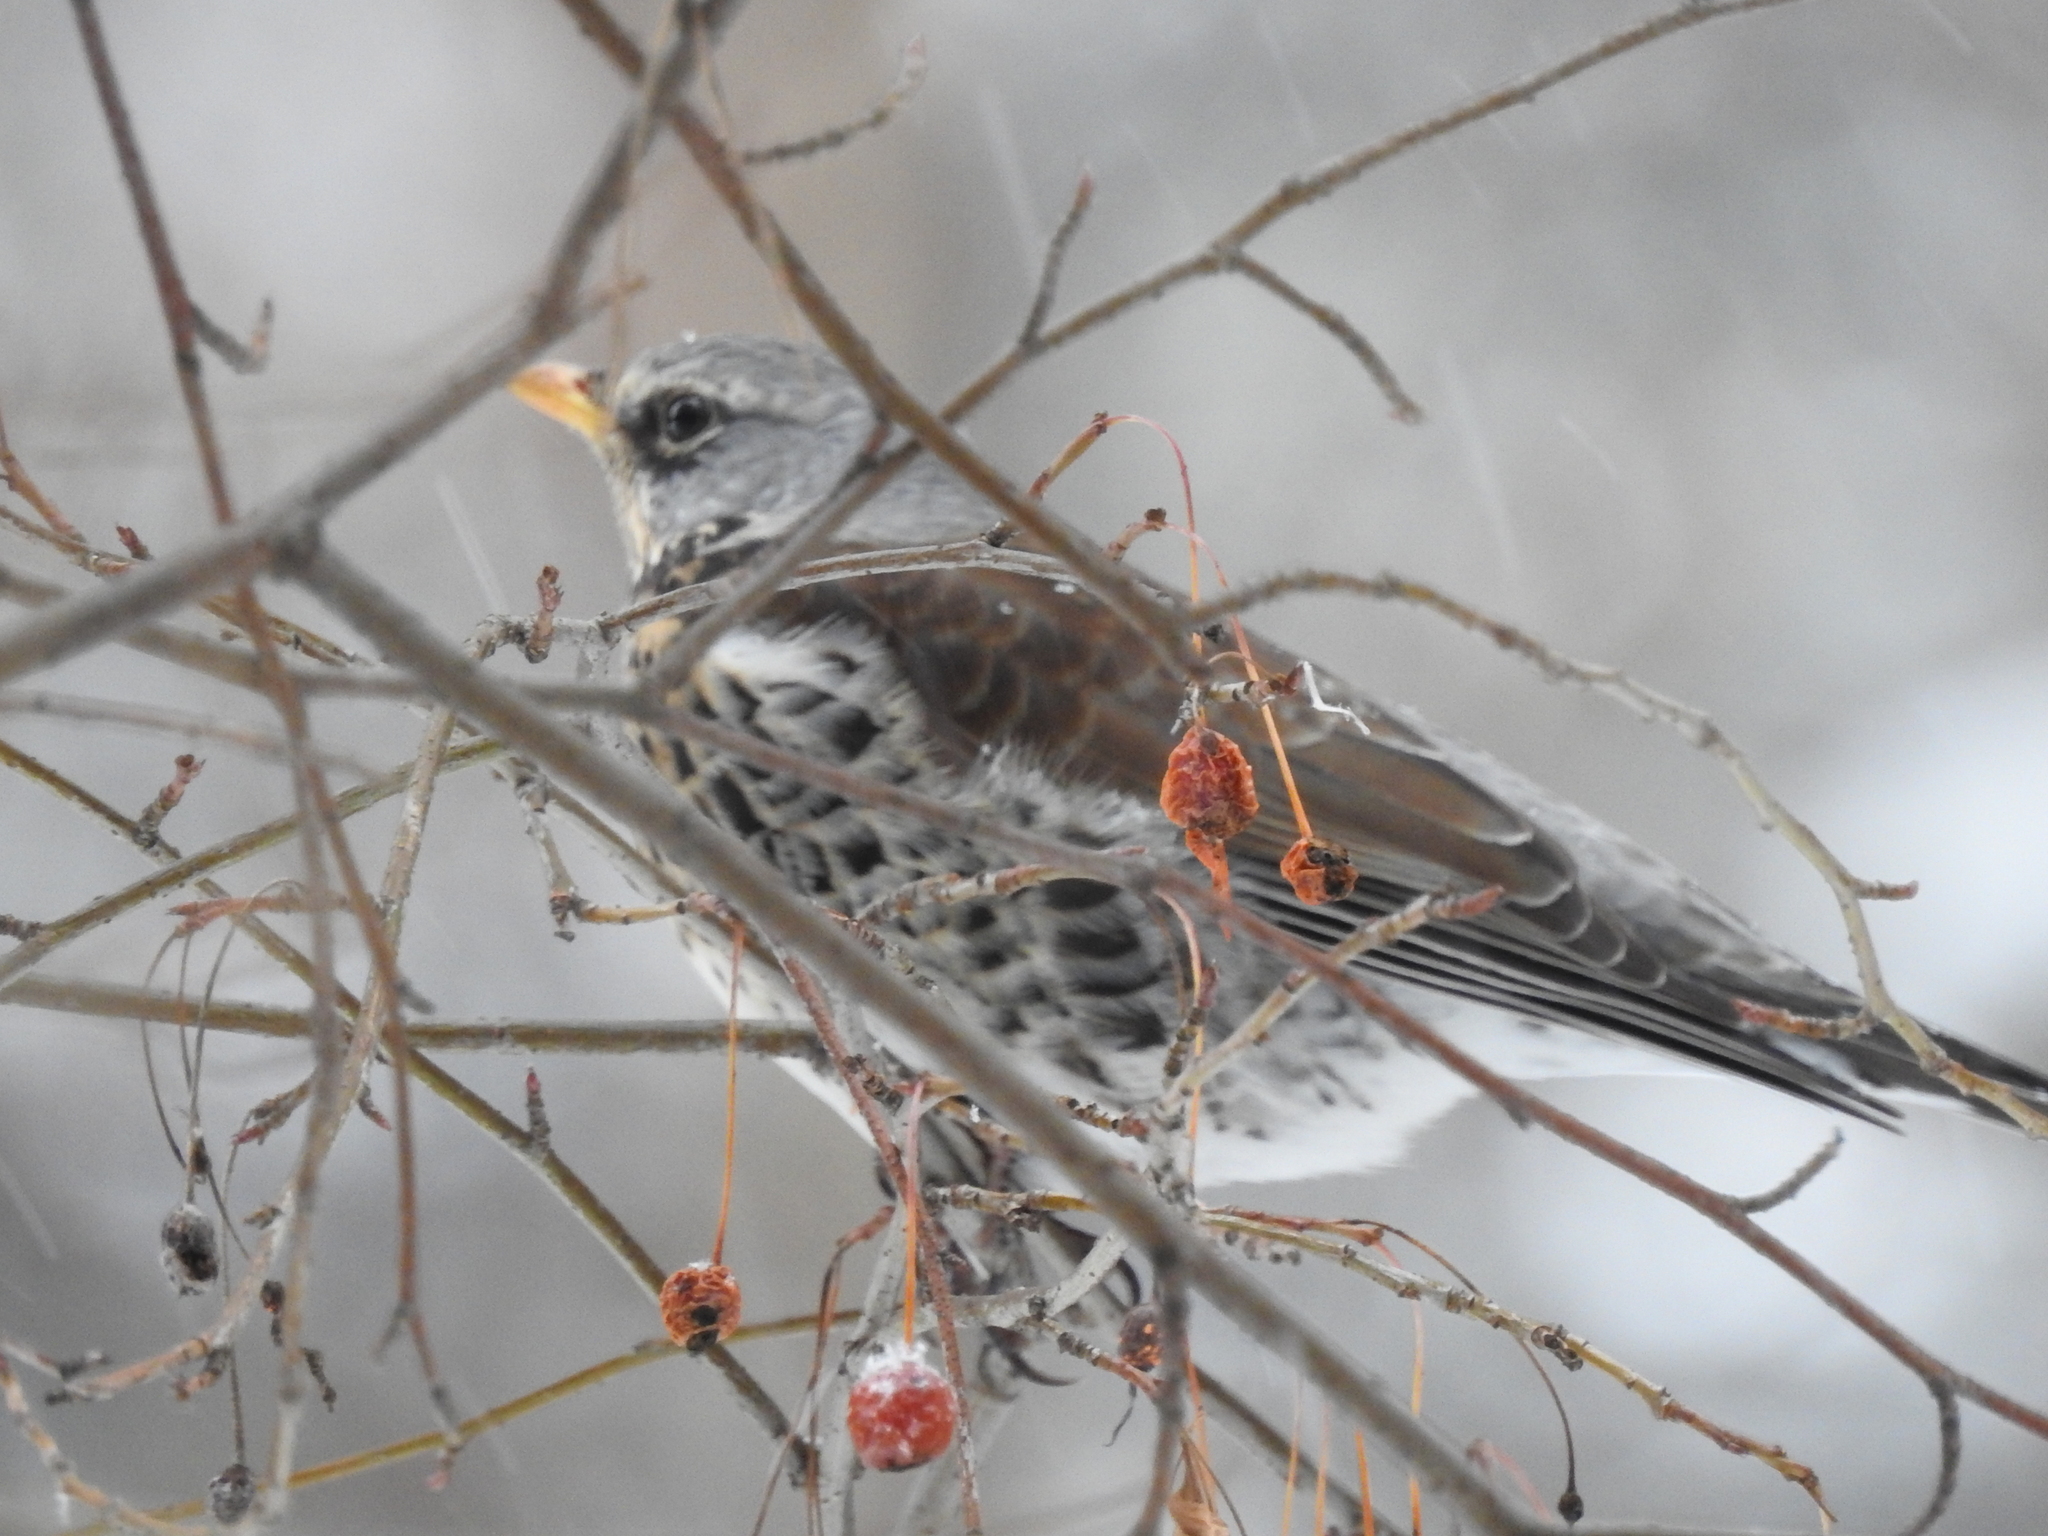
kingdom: Animalia
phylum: Chordata
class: Aves
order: Passeriformes
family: Turdidae
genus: Turdus
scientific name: Turdus pilaris
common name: Fieldfare
